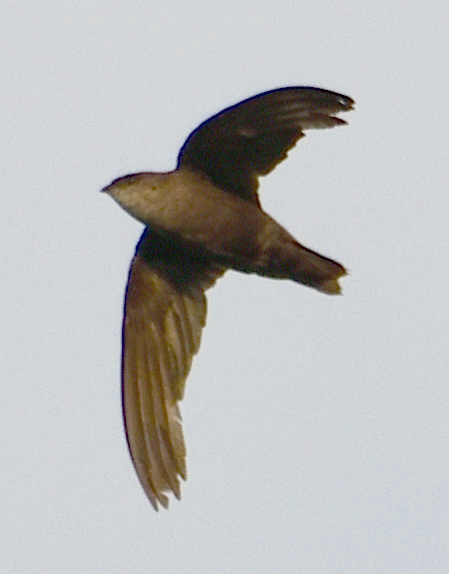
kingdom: Animalia
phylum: Chordata
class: Aves
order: Apodiformes
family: Apodidae
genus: Chaetura
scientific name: Chaetura pelagica
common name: Chimney swift
